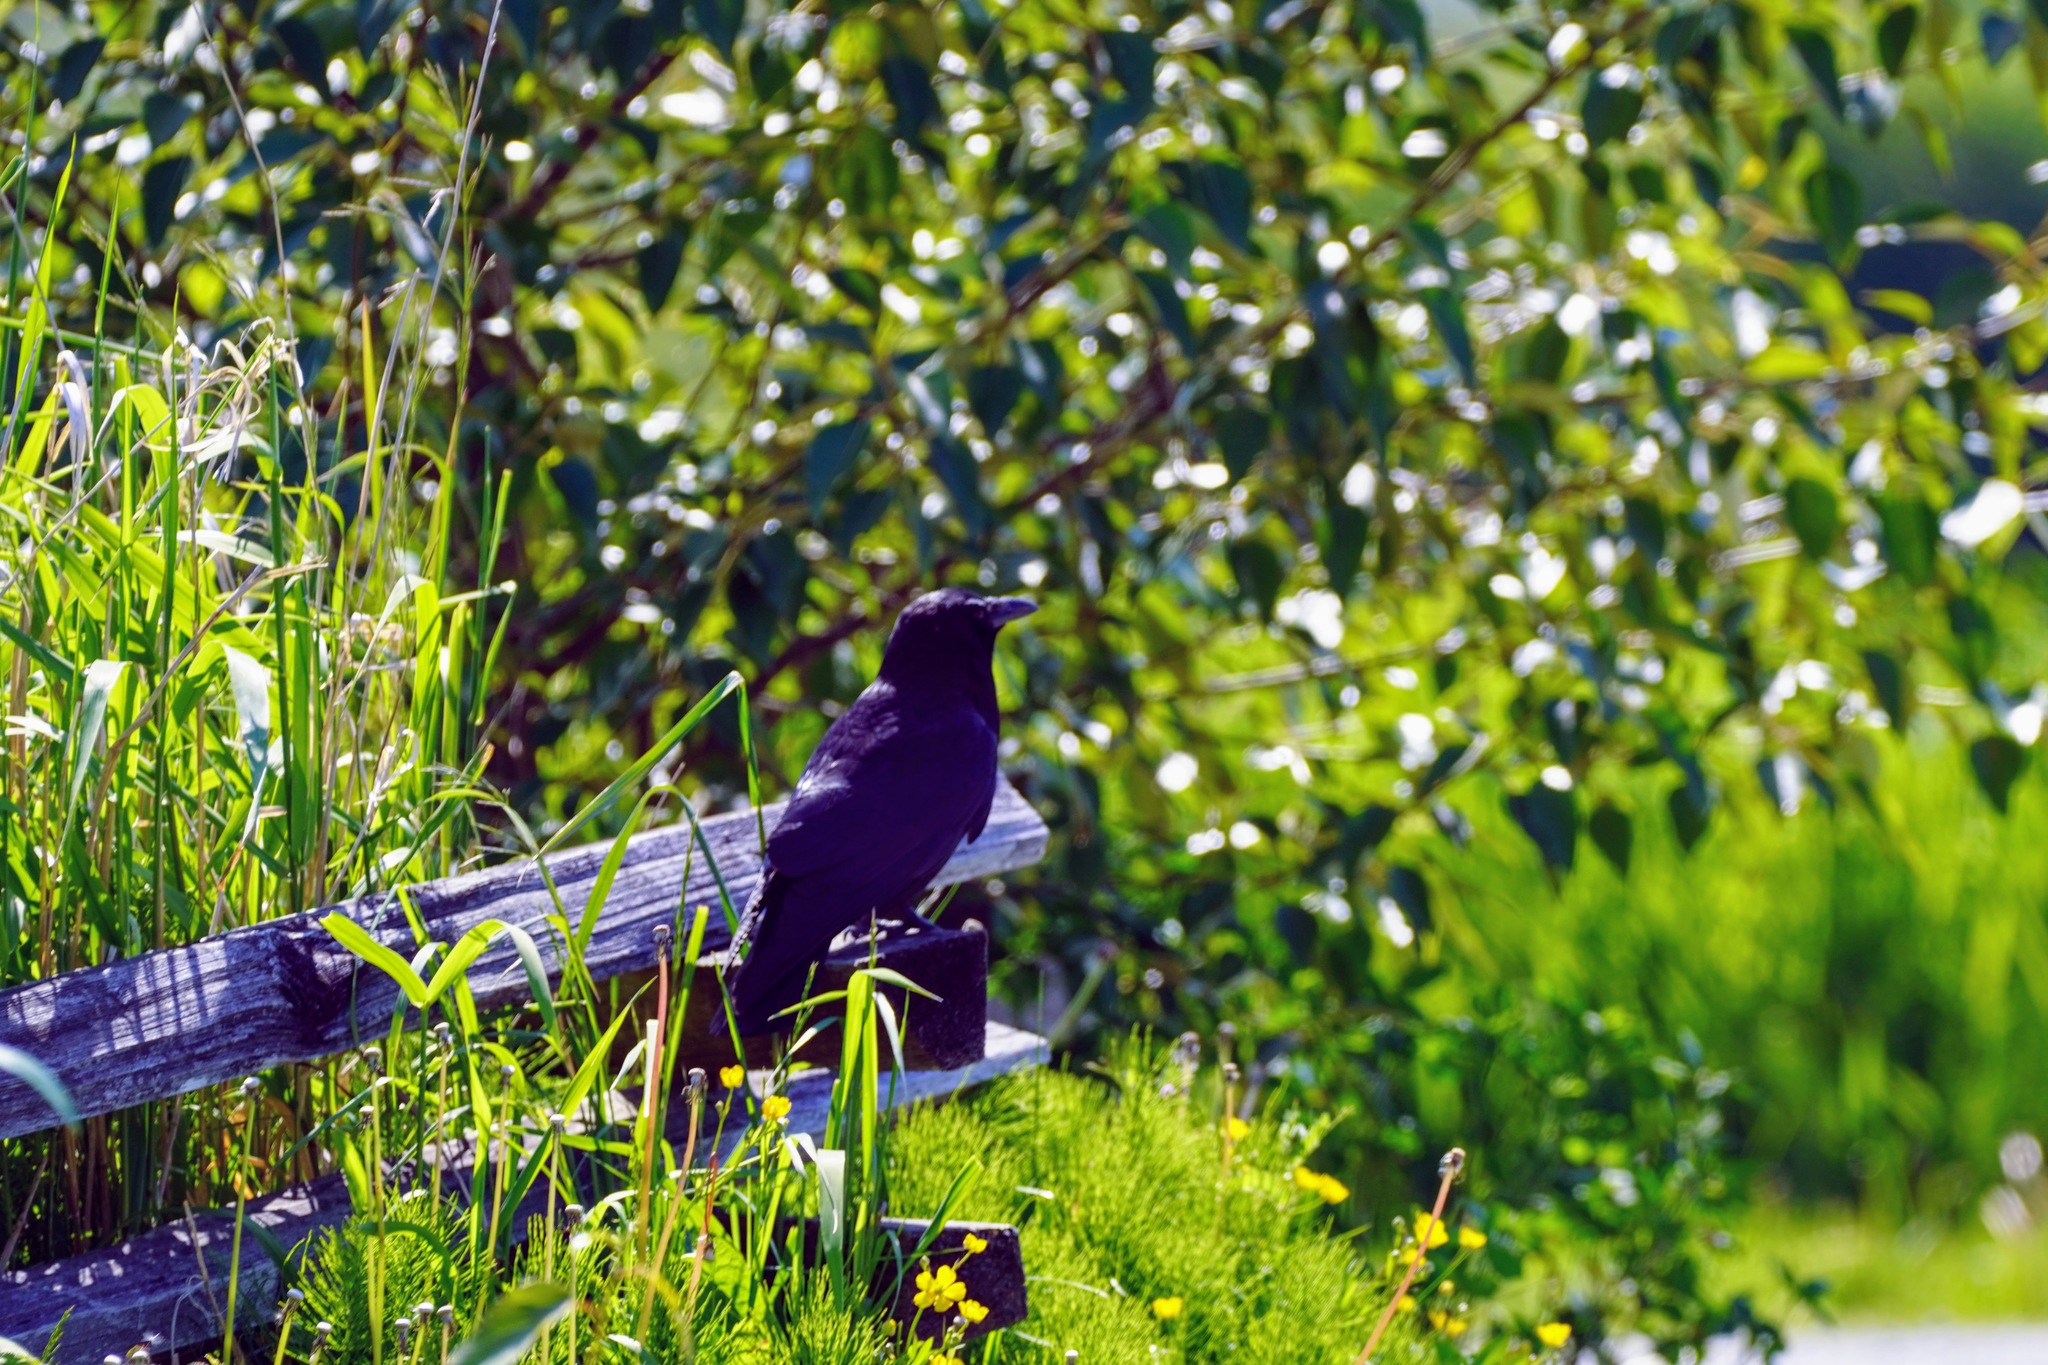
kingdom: Animalia
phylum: Chordata
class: Aves
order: Passeriformes
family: Corvidae
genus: Corvus
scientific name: Corvus brachyrhynchos
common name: American crow
